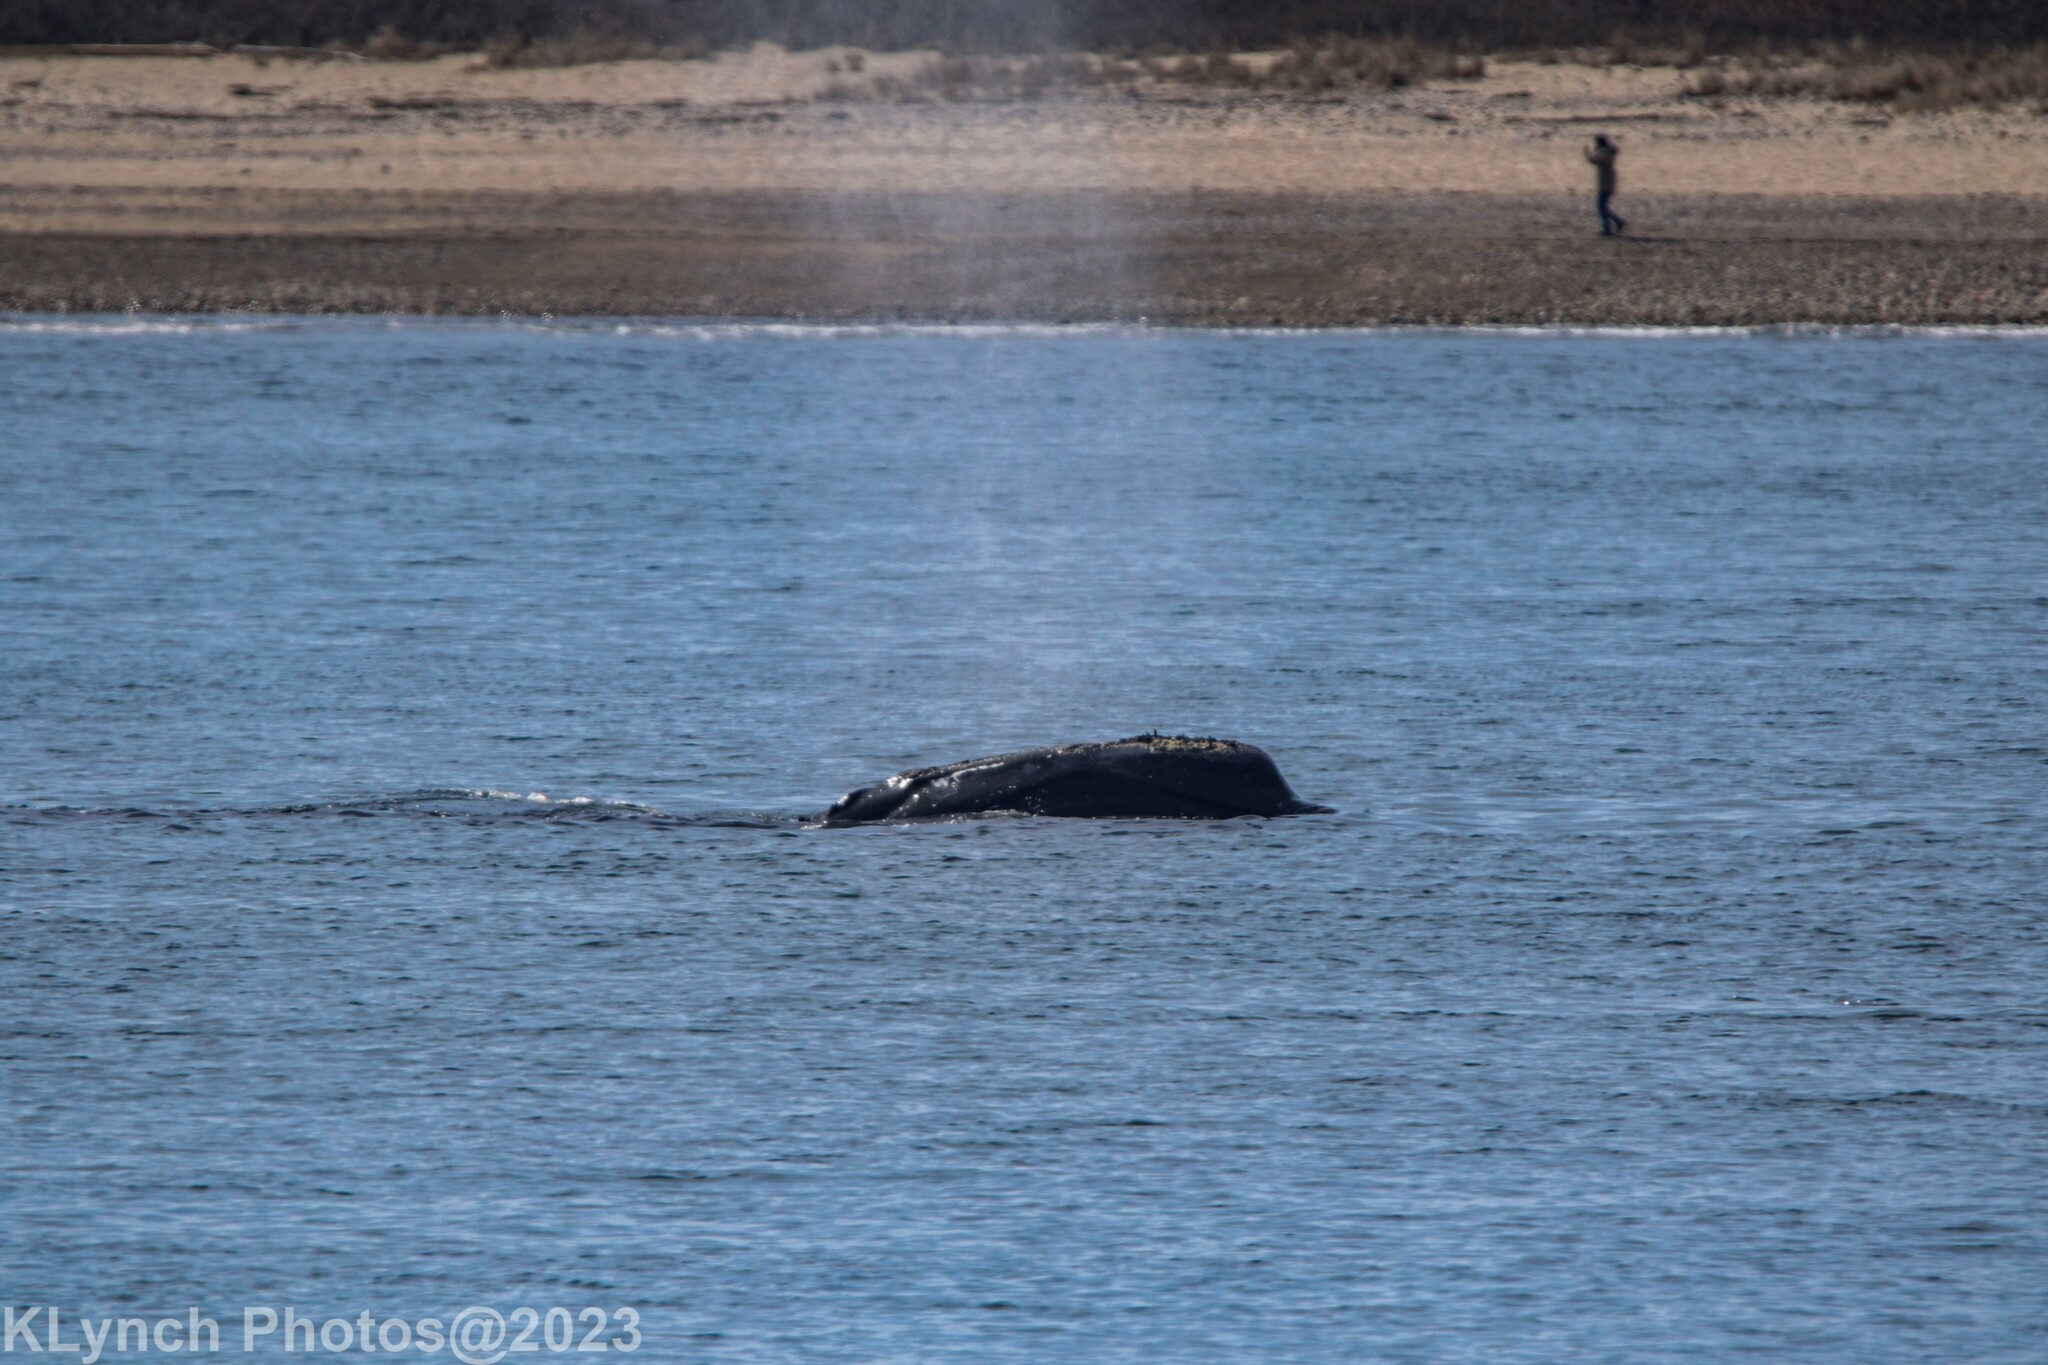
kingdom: Animalia
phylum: Chordata
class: Mammalia
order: Cetacea
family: Balaenidae
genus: Eubalaena
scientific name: Eubalaena glacialis
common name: North atlantic right whale
